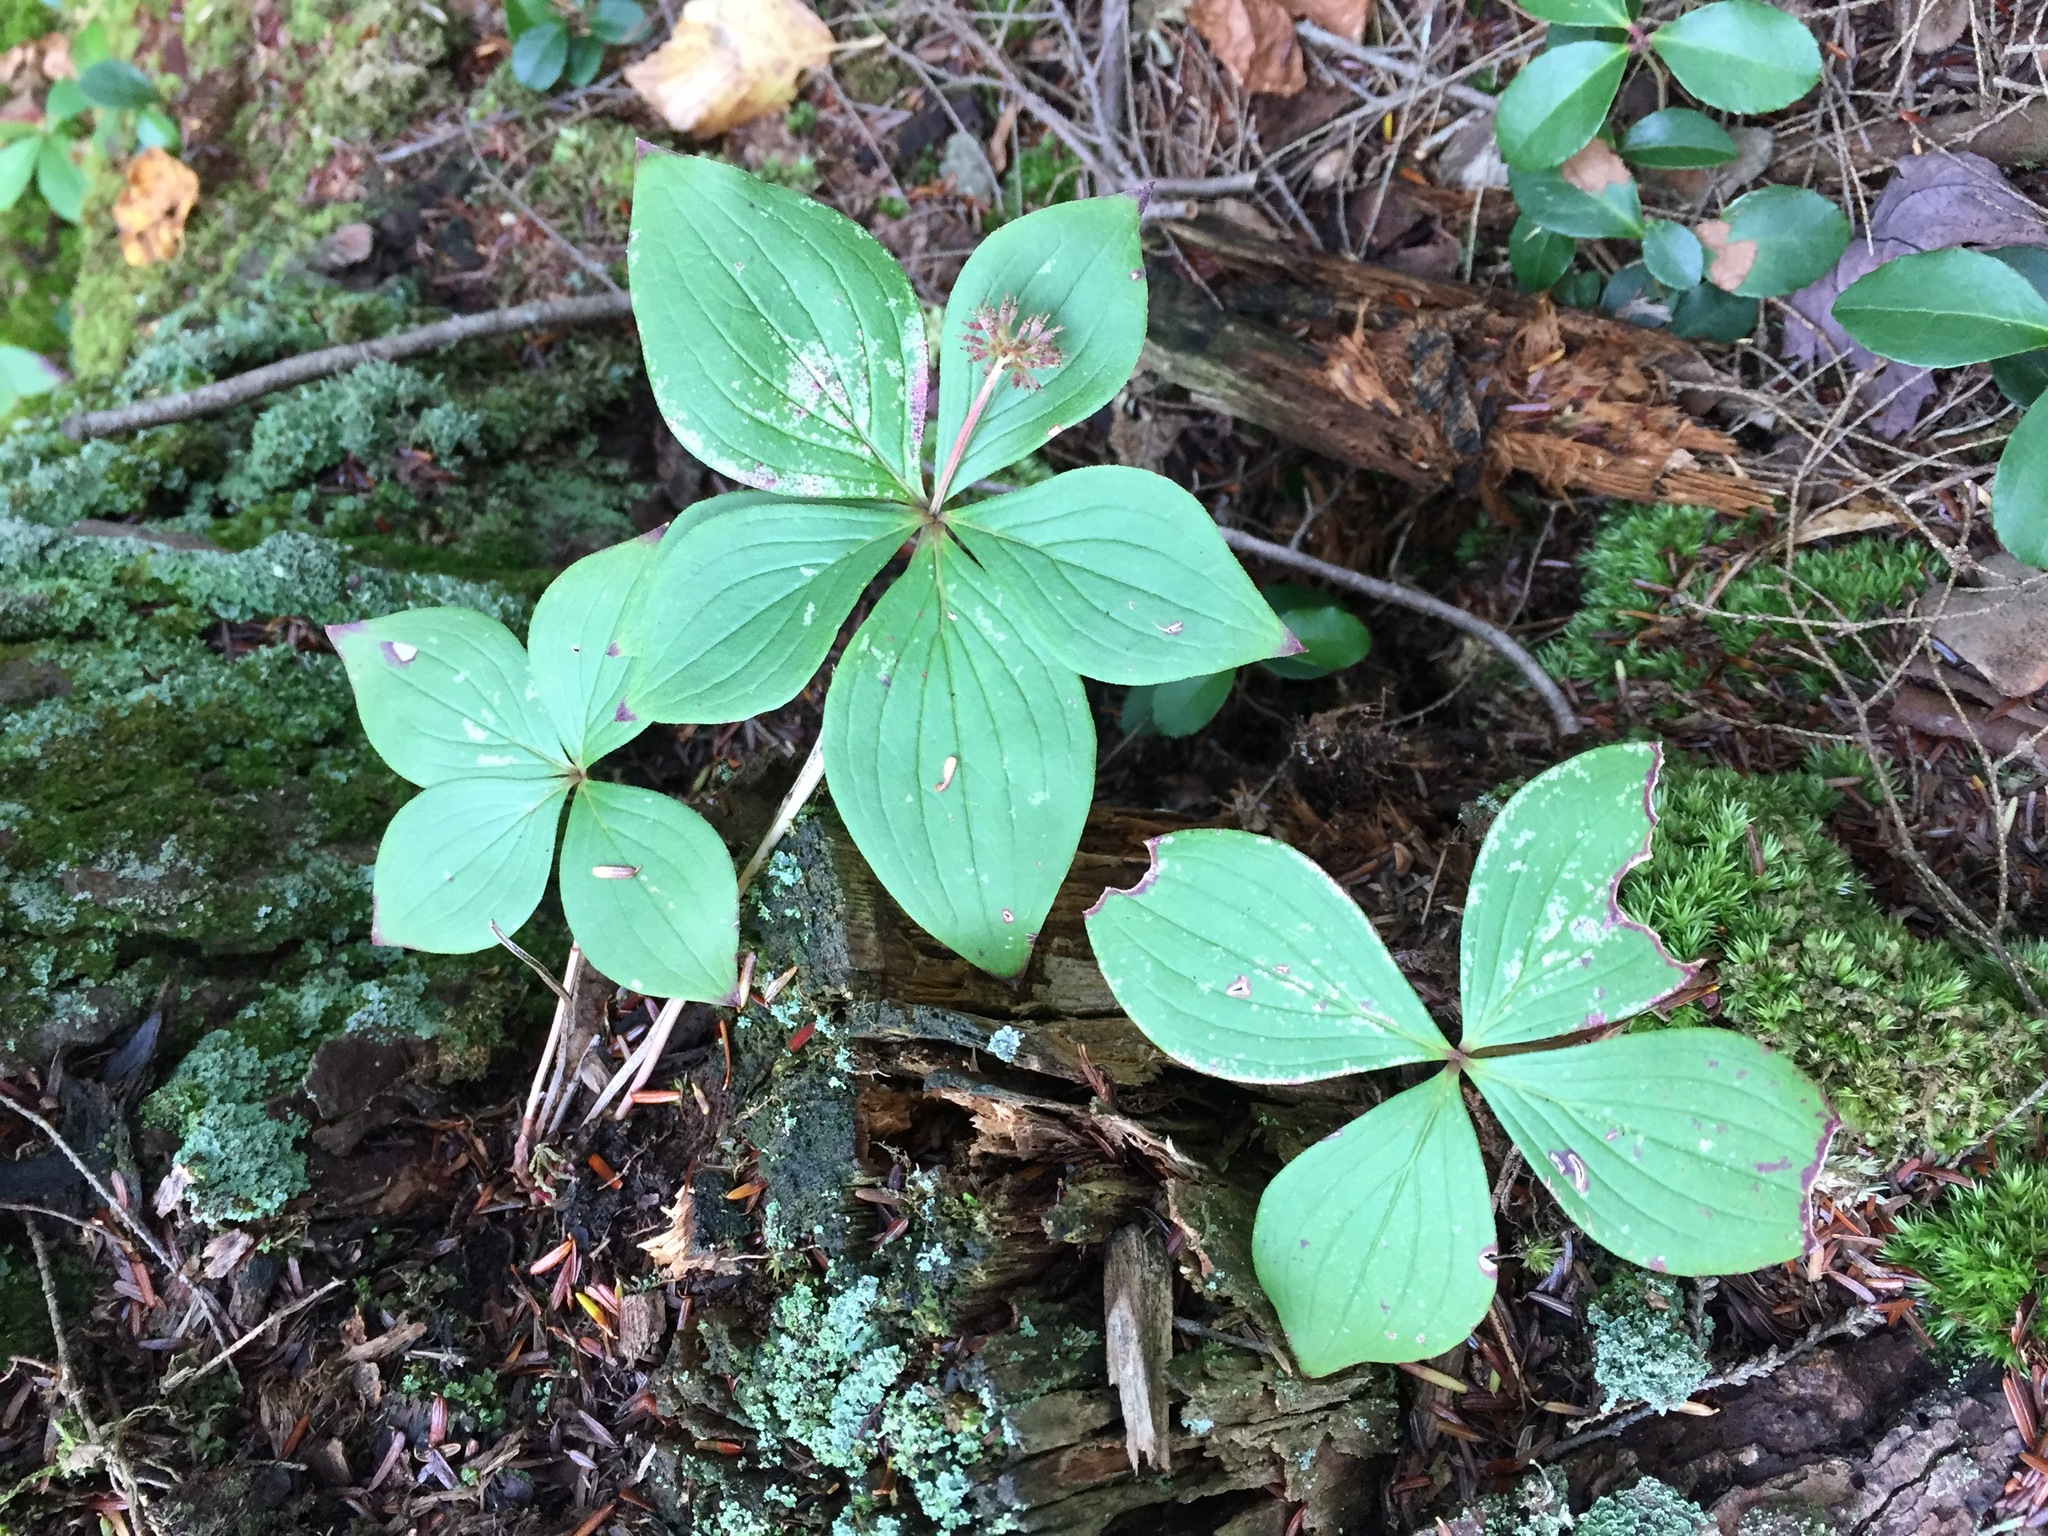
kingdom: Plantae
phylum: Tracheophyta
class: Magnoliopsida
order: Cornales
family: Cornaceae
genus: Cornus
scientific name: Cornus canadensis
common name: Creeping dogwood
